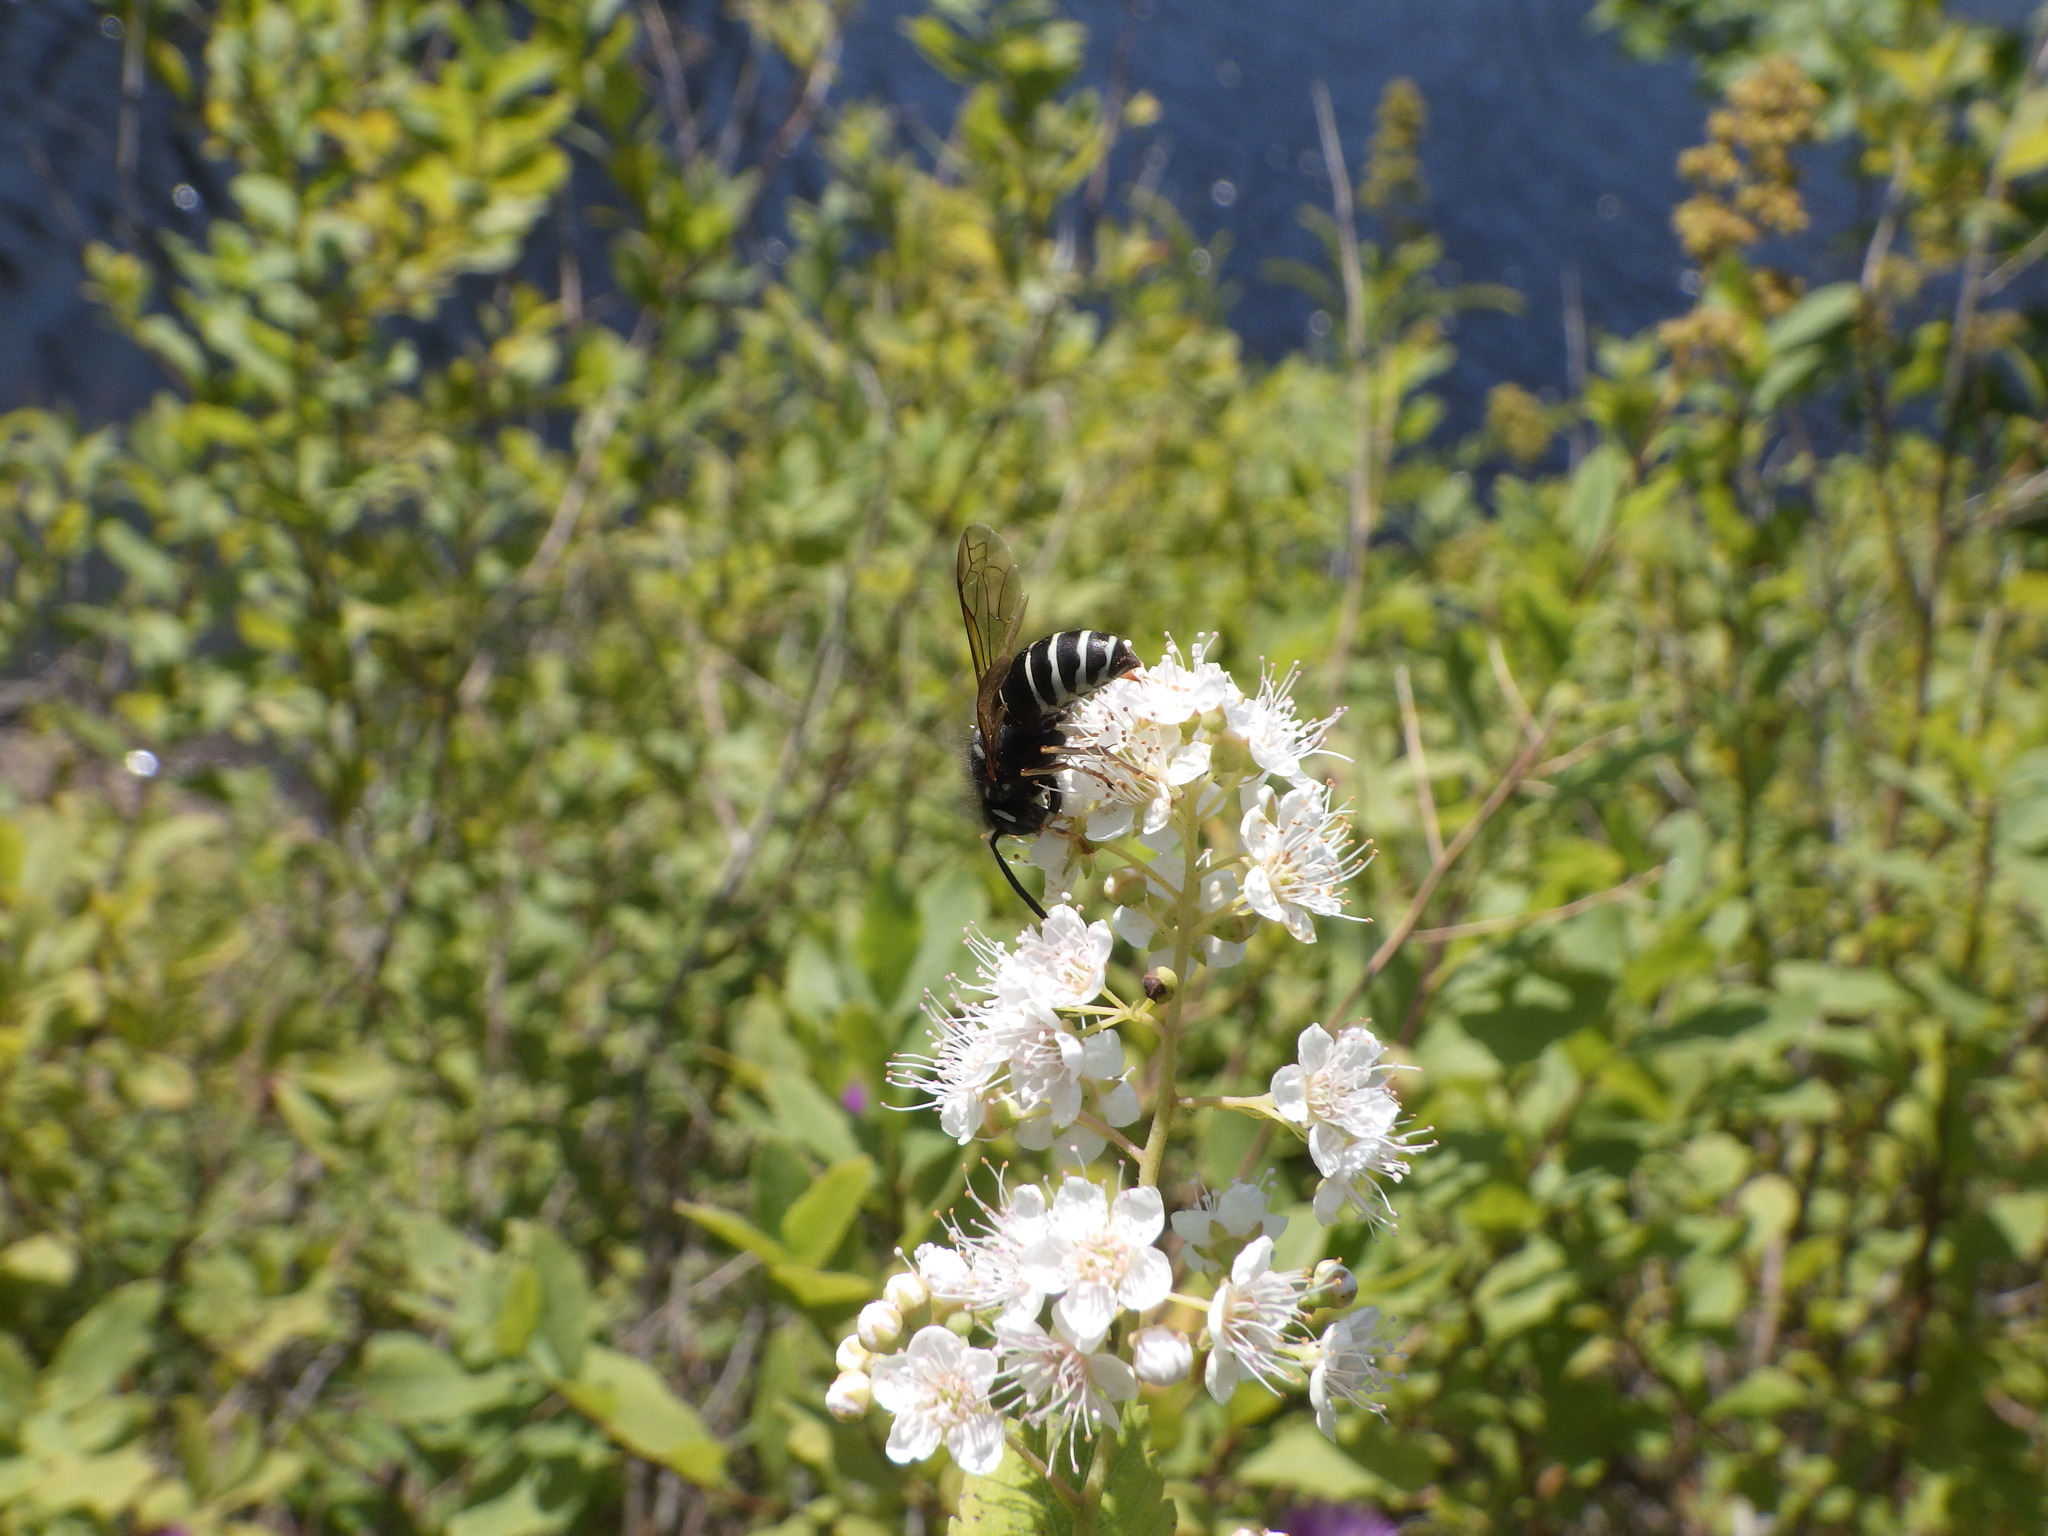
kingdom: Animalia
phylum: Arthropoda
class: Insecta
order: Hymenoptera
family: Vespidae
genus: Vespula
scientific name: Vespula consobrina
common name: Blackjacket
